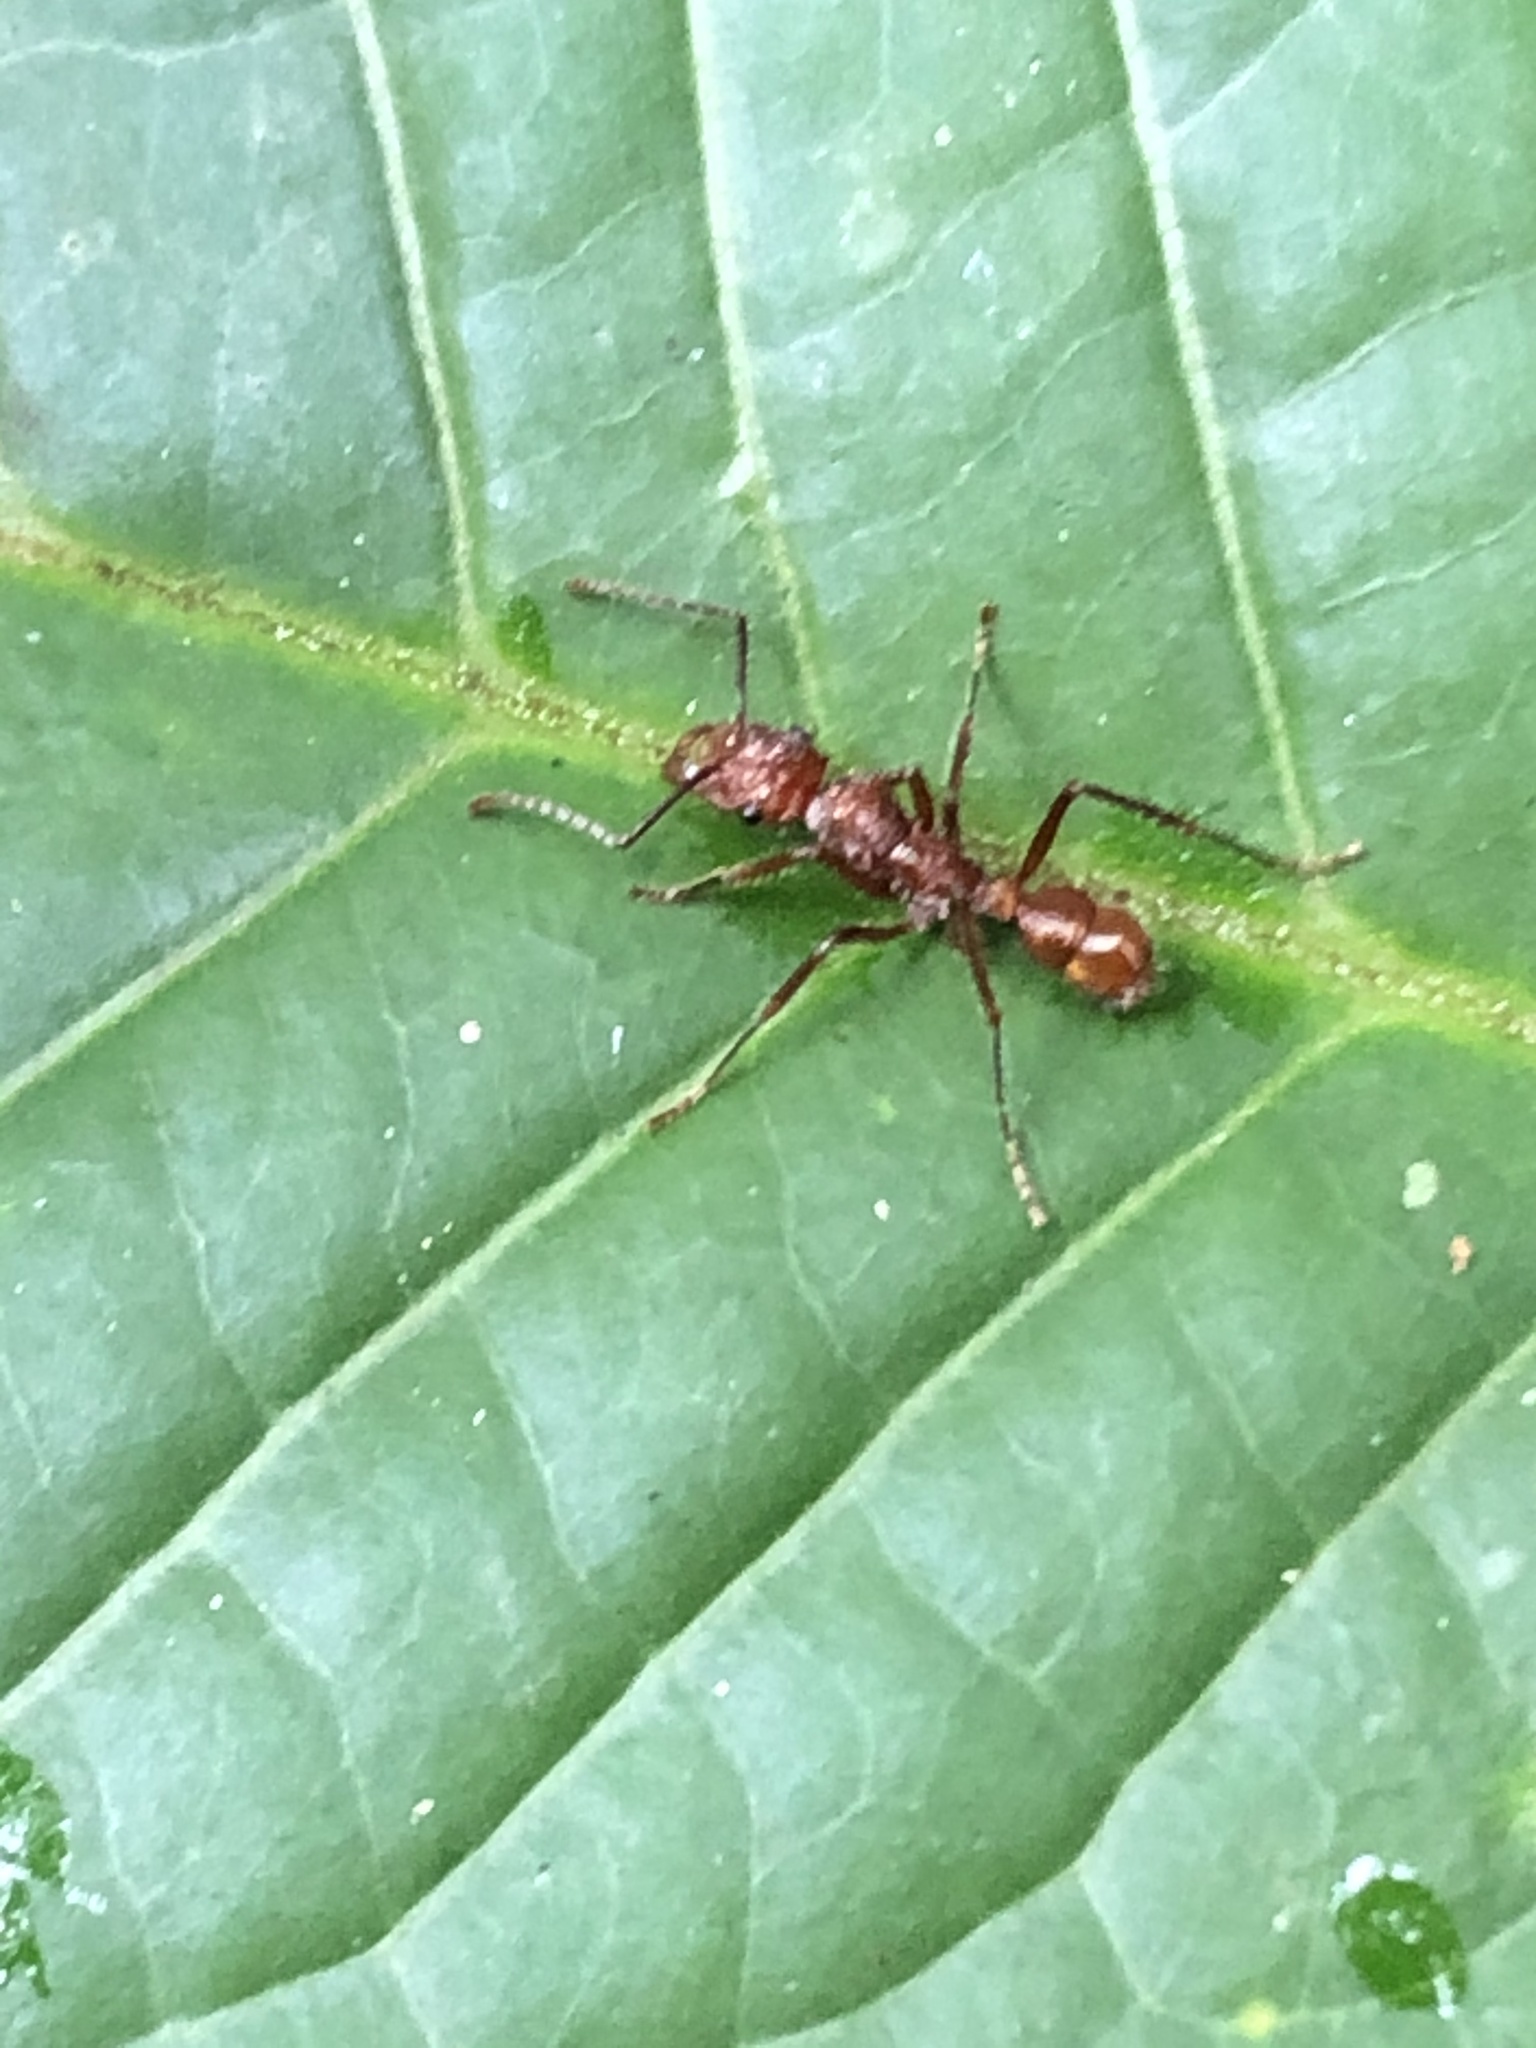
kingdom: Animalia
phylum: Arthropoda
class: Insecta
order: Hymenoptera
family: Formicidae
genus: Ectatomma
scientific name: Ectatomma tuberculatum
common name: Ant
